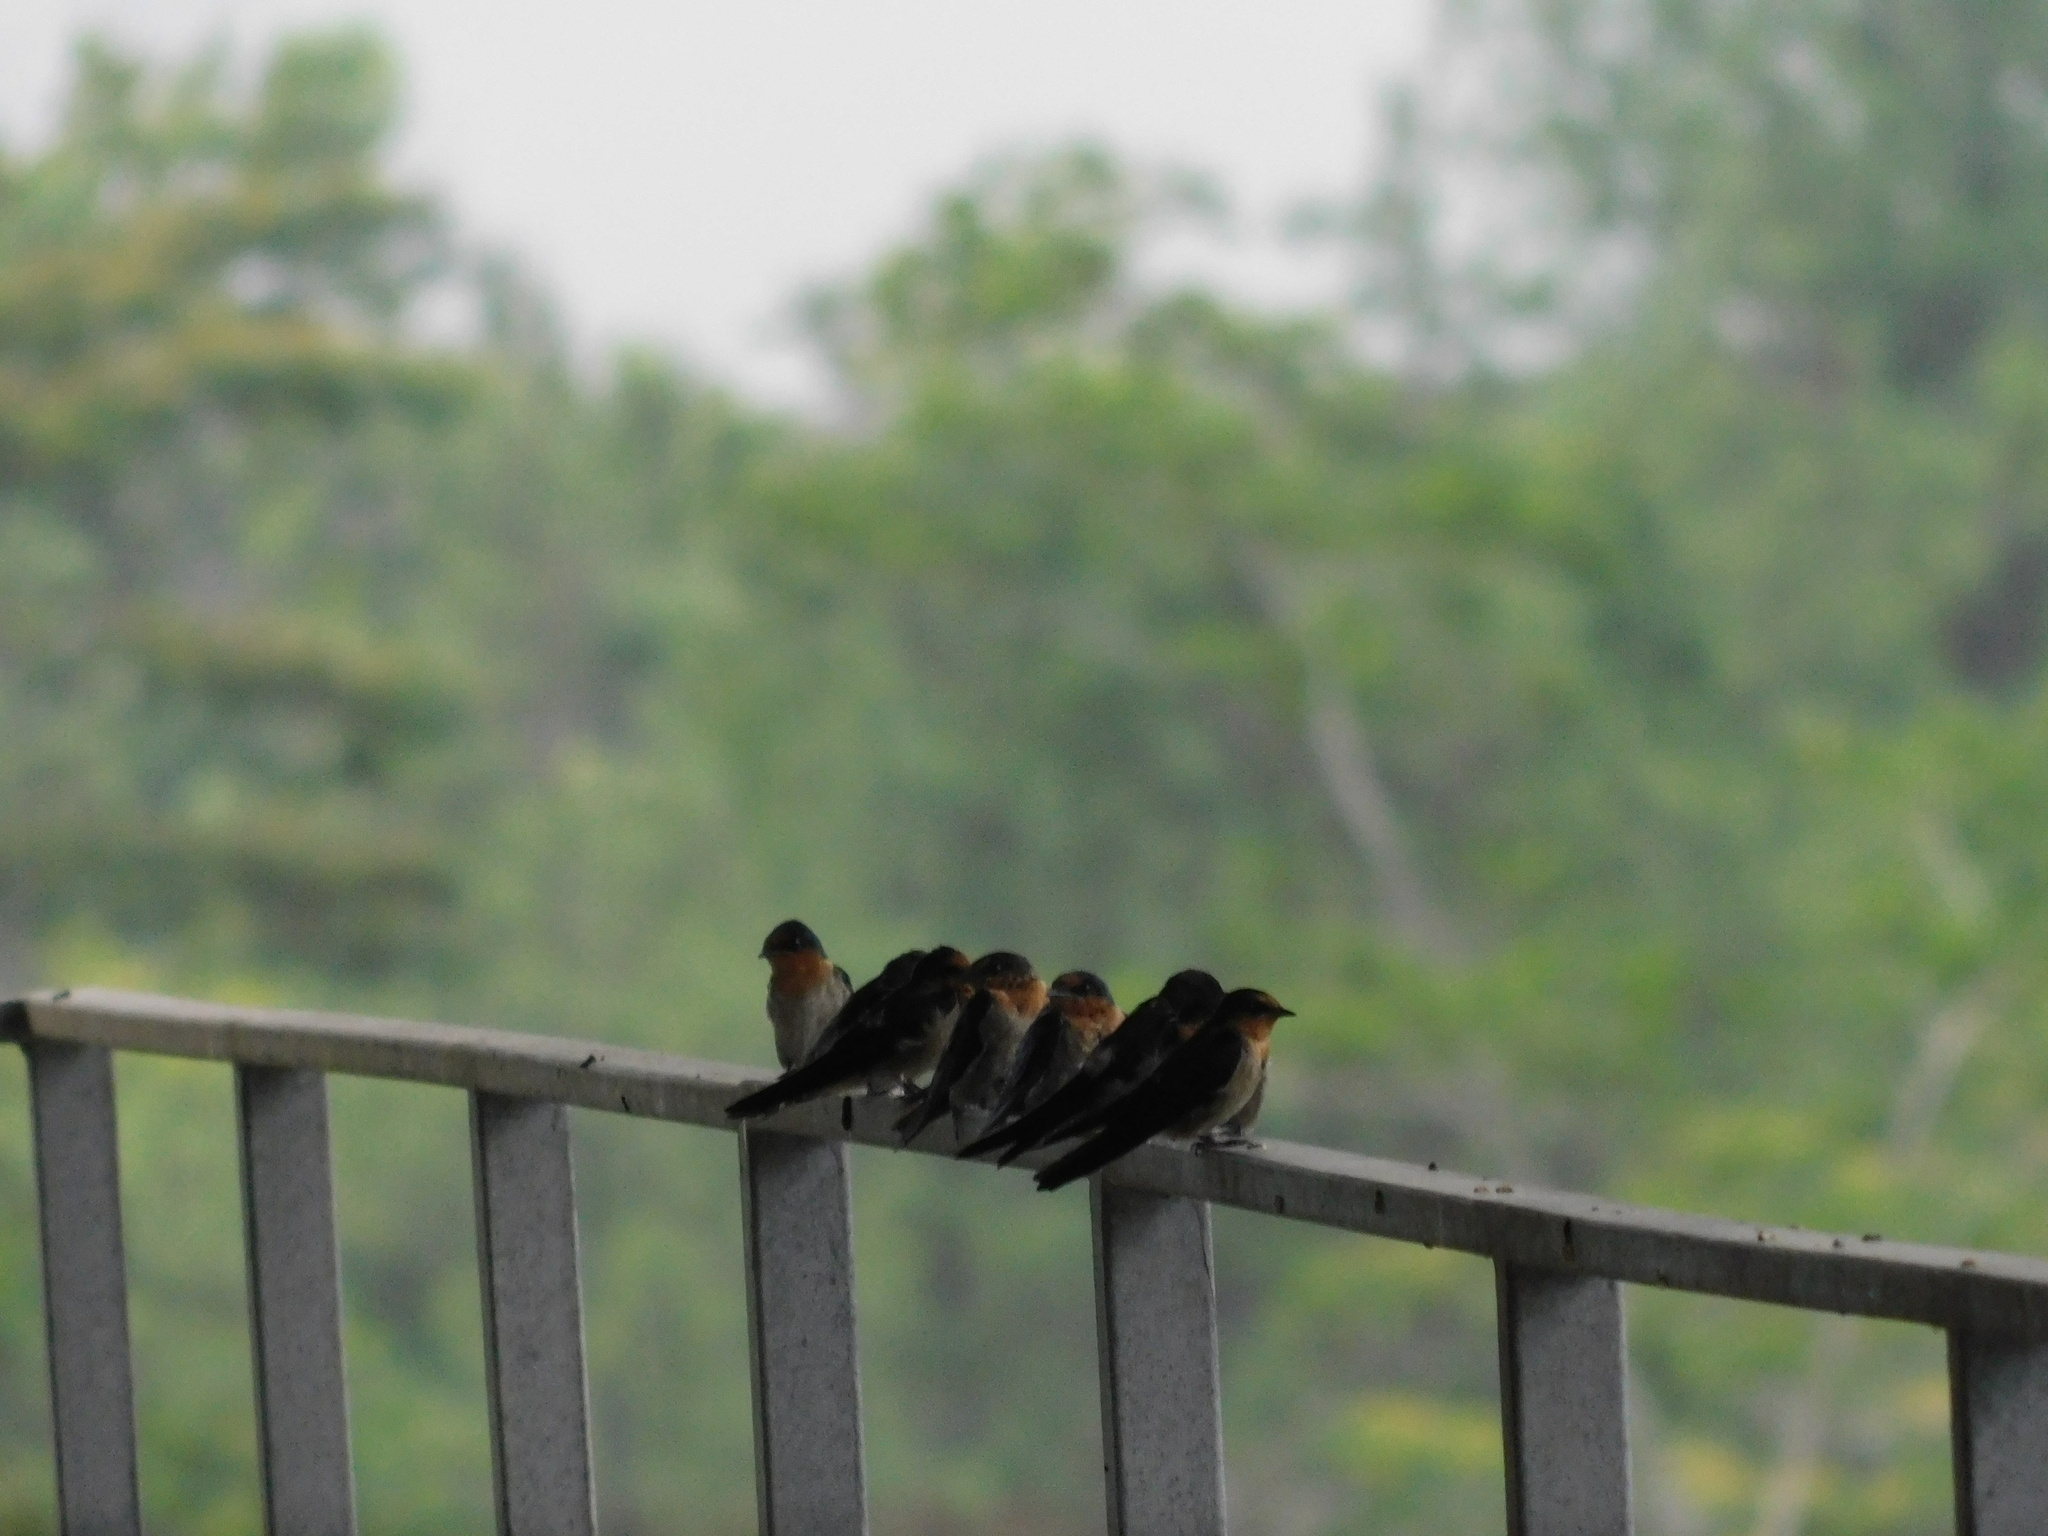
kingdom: Animalia
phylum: Chordata
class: Aves
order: Passeriformes
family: Hirundinidae
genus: Hirundo
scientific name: Hirundo tahitica
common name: Pacific swallow
